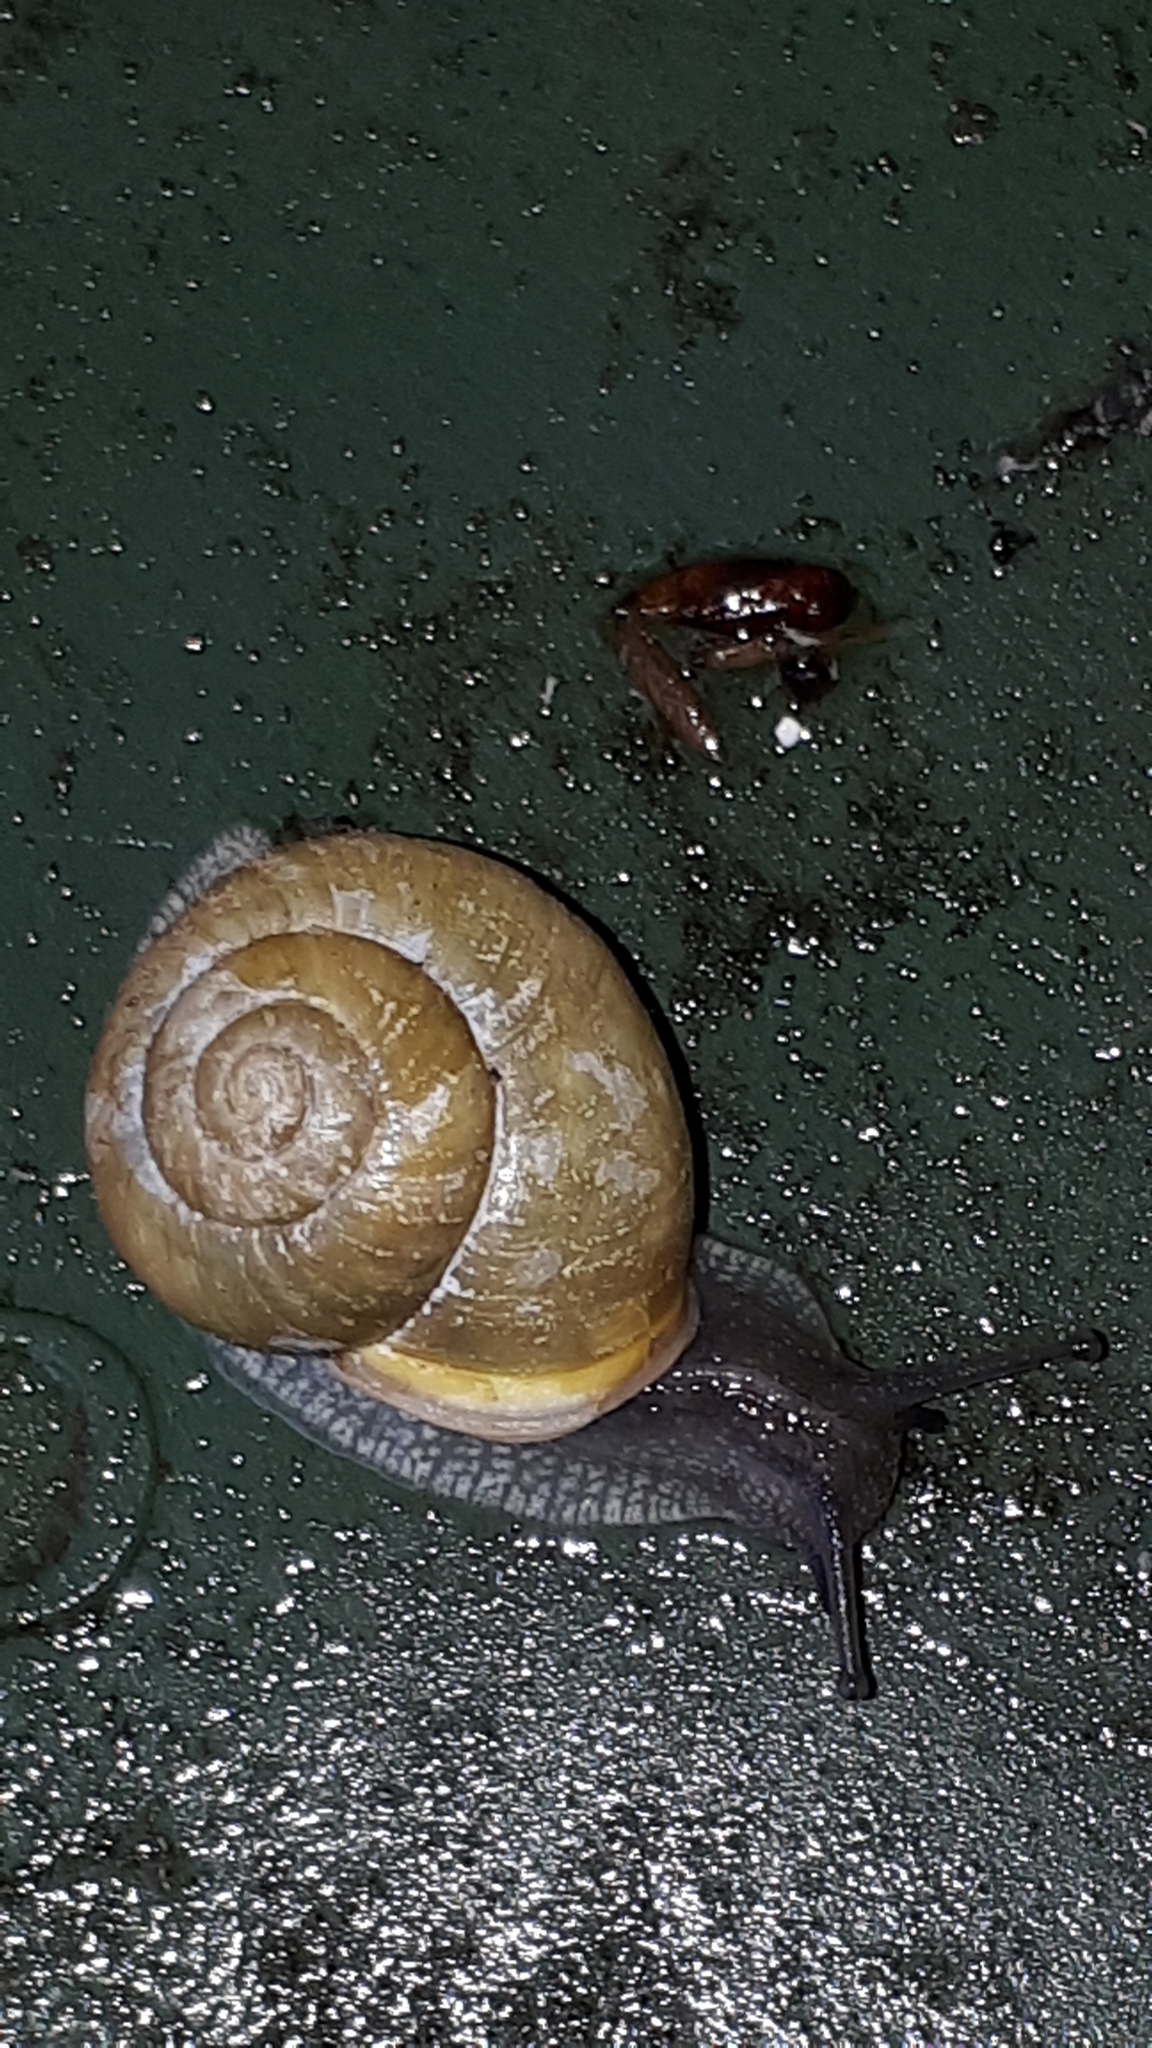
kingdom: Animalia
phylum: Mollusca
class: Gastropoda
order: Stylommatophora
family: Helicidae
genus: Cepaea
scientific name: Cepaea hortensis
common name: White-lip gardensnail
